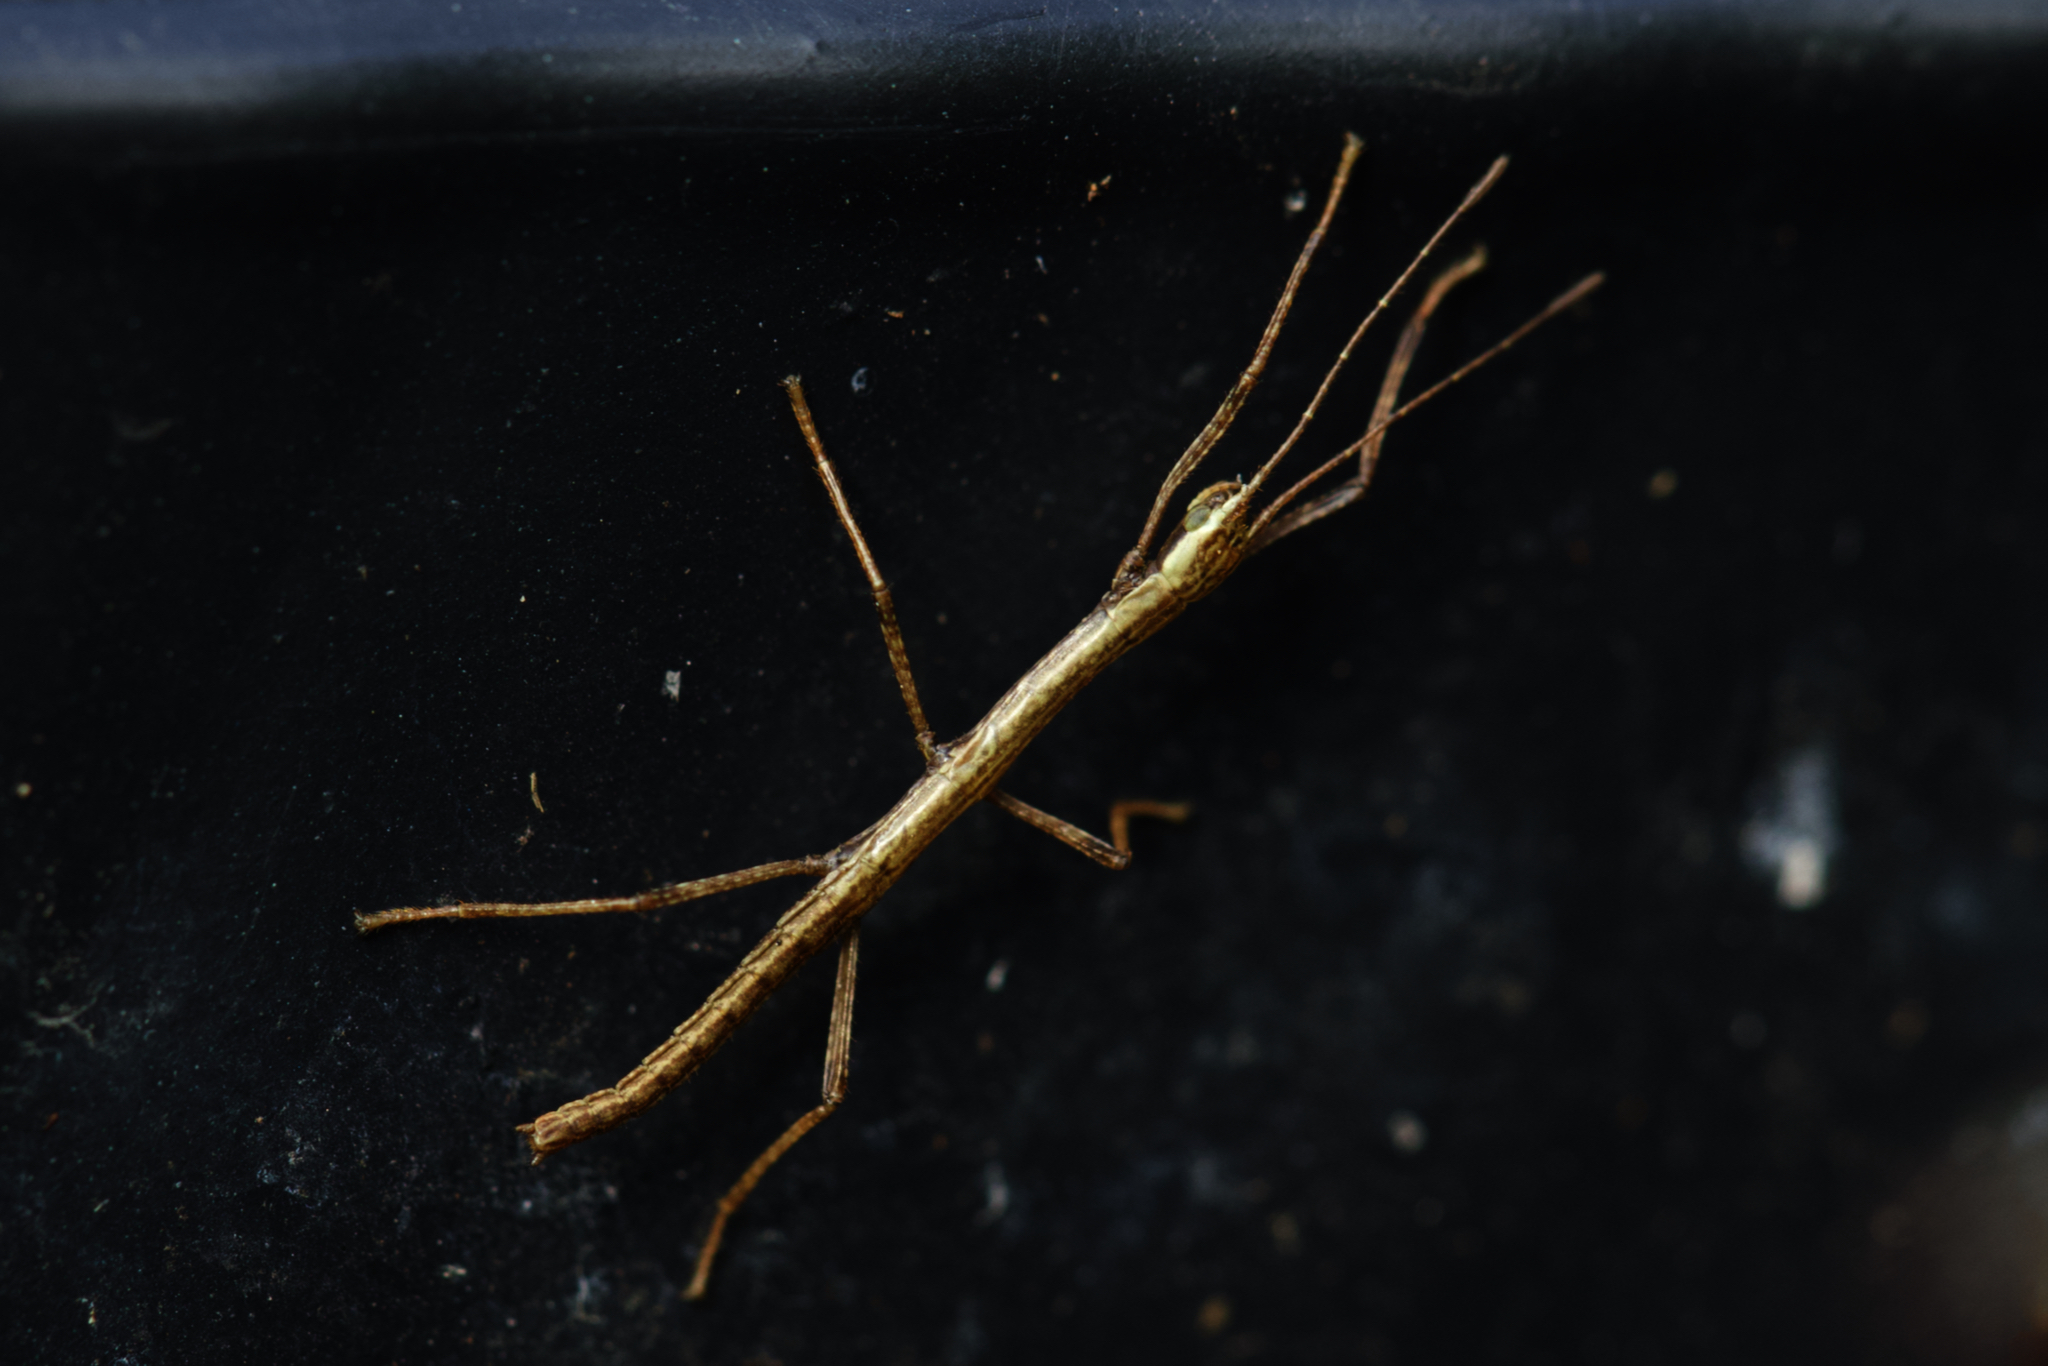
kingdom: Animalia
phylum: Arthropoda
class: Insecta
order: Phasmida
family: Lonchodidae
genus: Carausius
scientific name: Carausius morosus
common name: Indian stick insect
